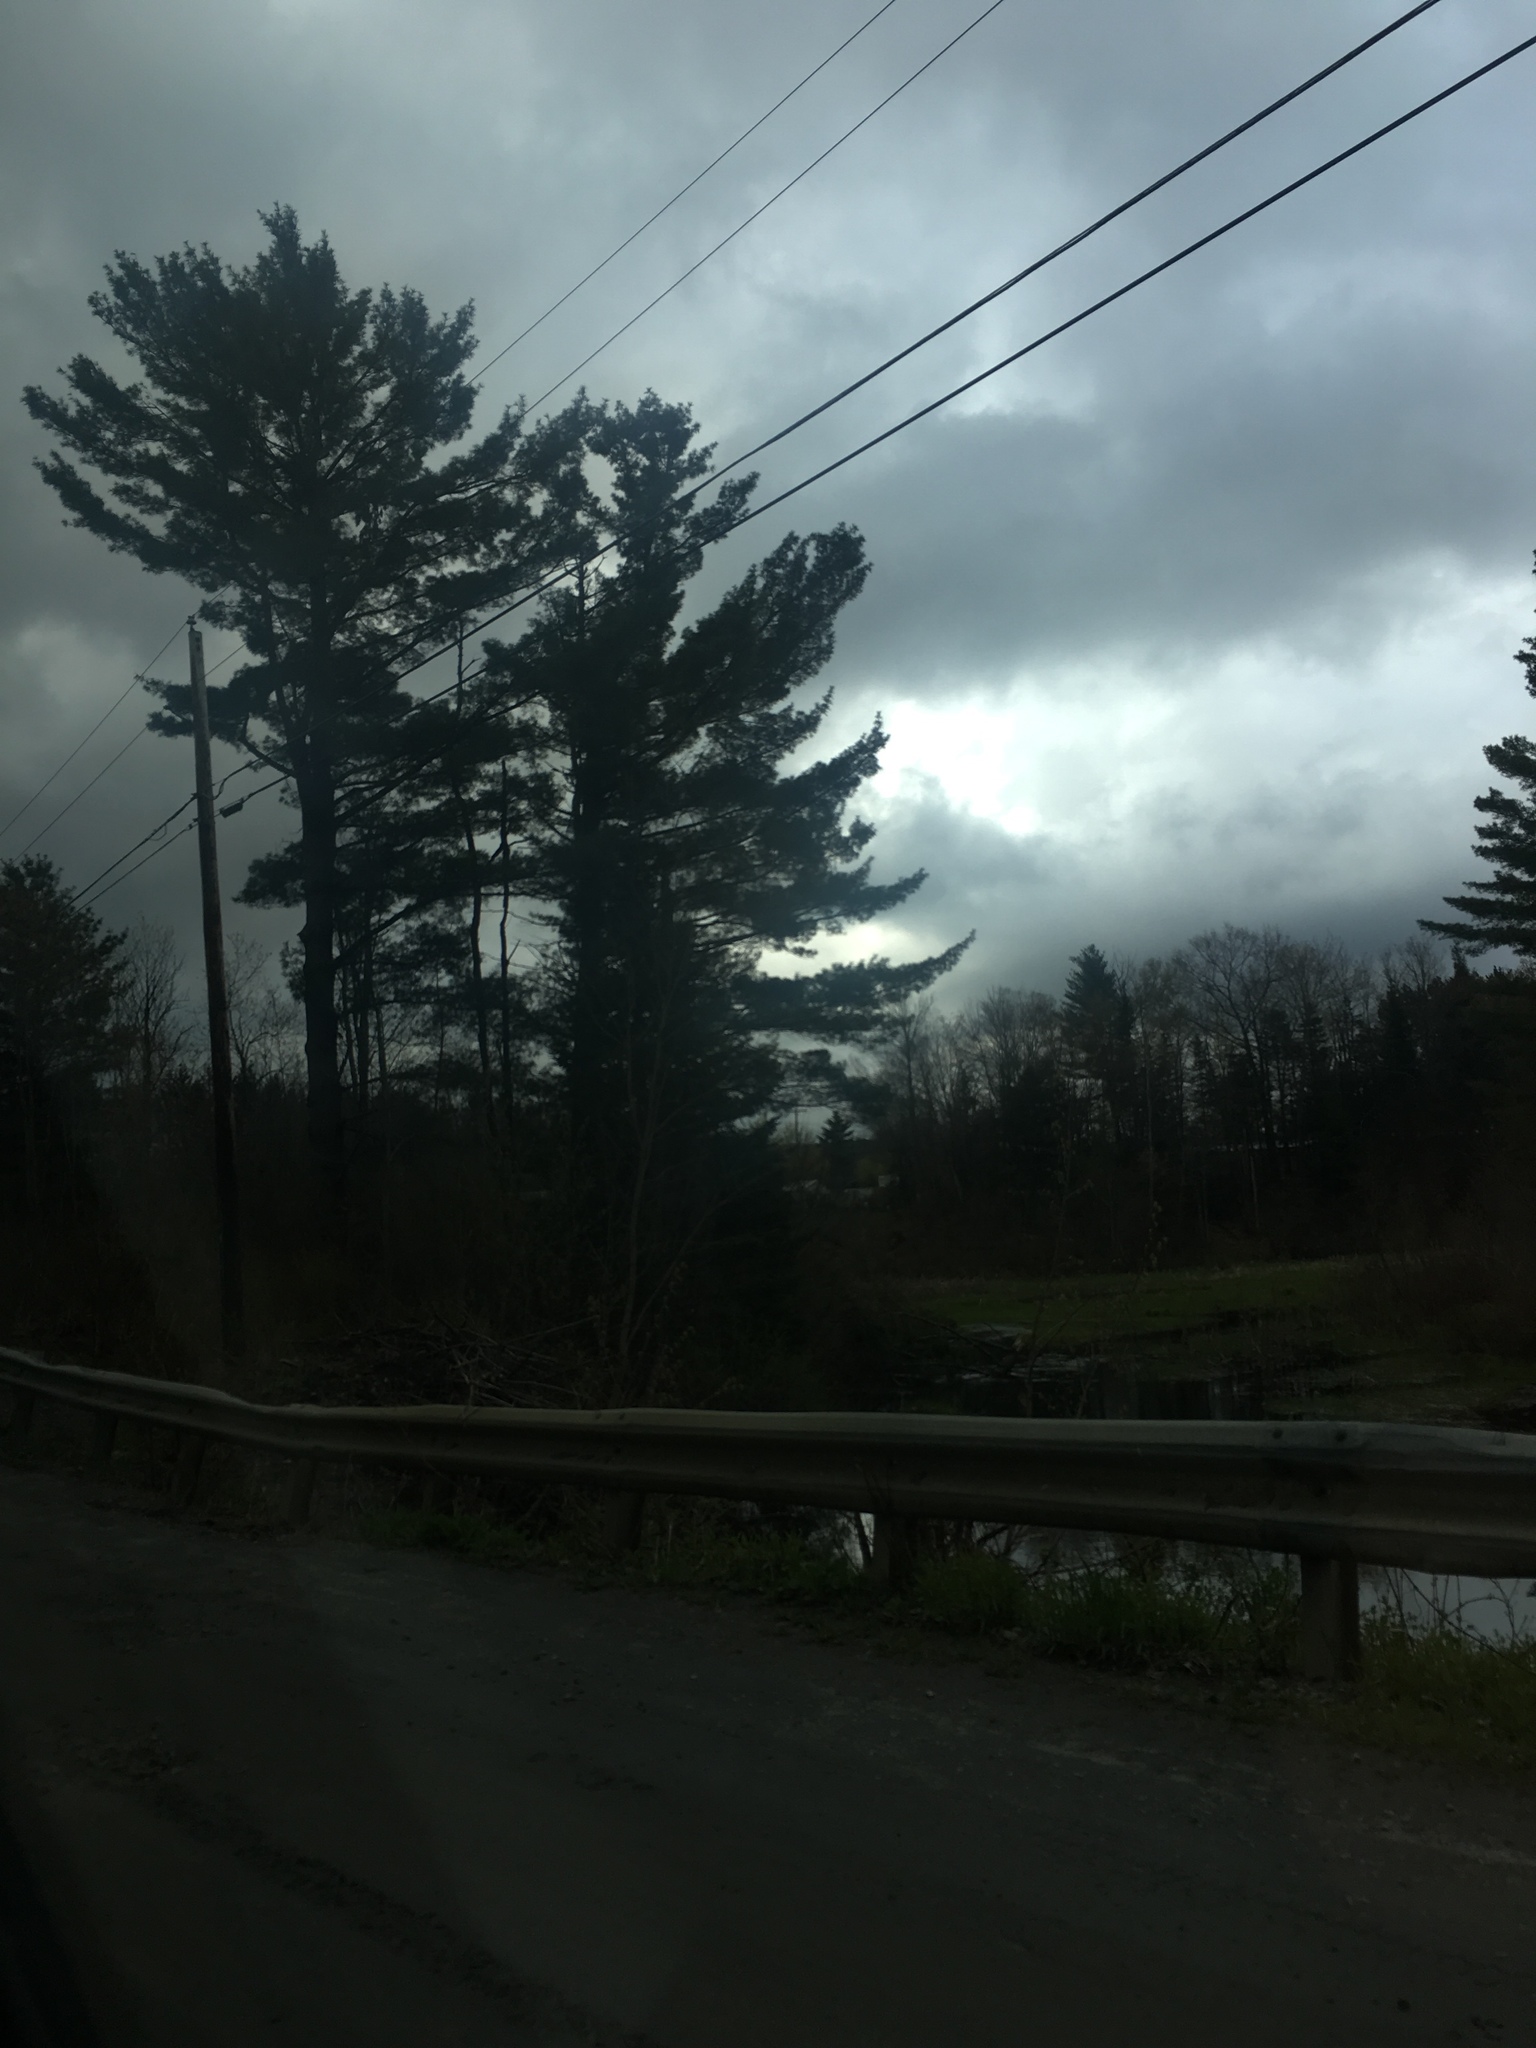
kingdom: Plantae
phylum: Tracheophyta
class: Pinopsida
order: Pinales
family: Pinaceae
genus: Pinus
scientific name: Pinus strobus
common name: Weymouth pine
